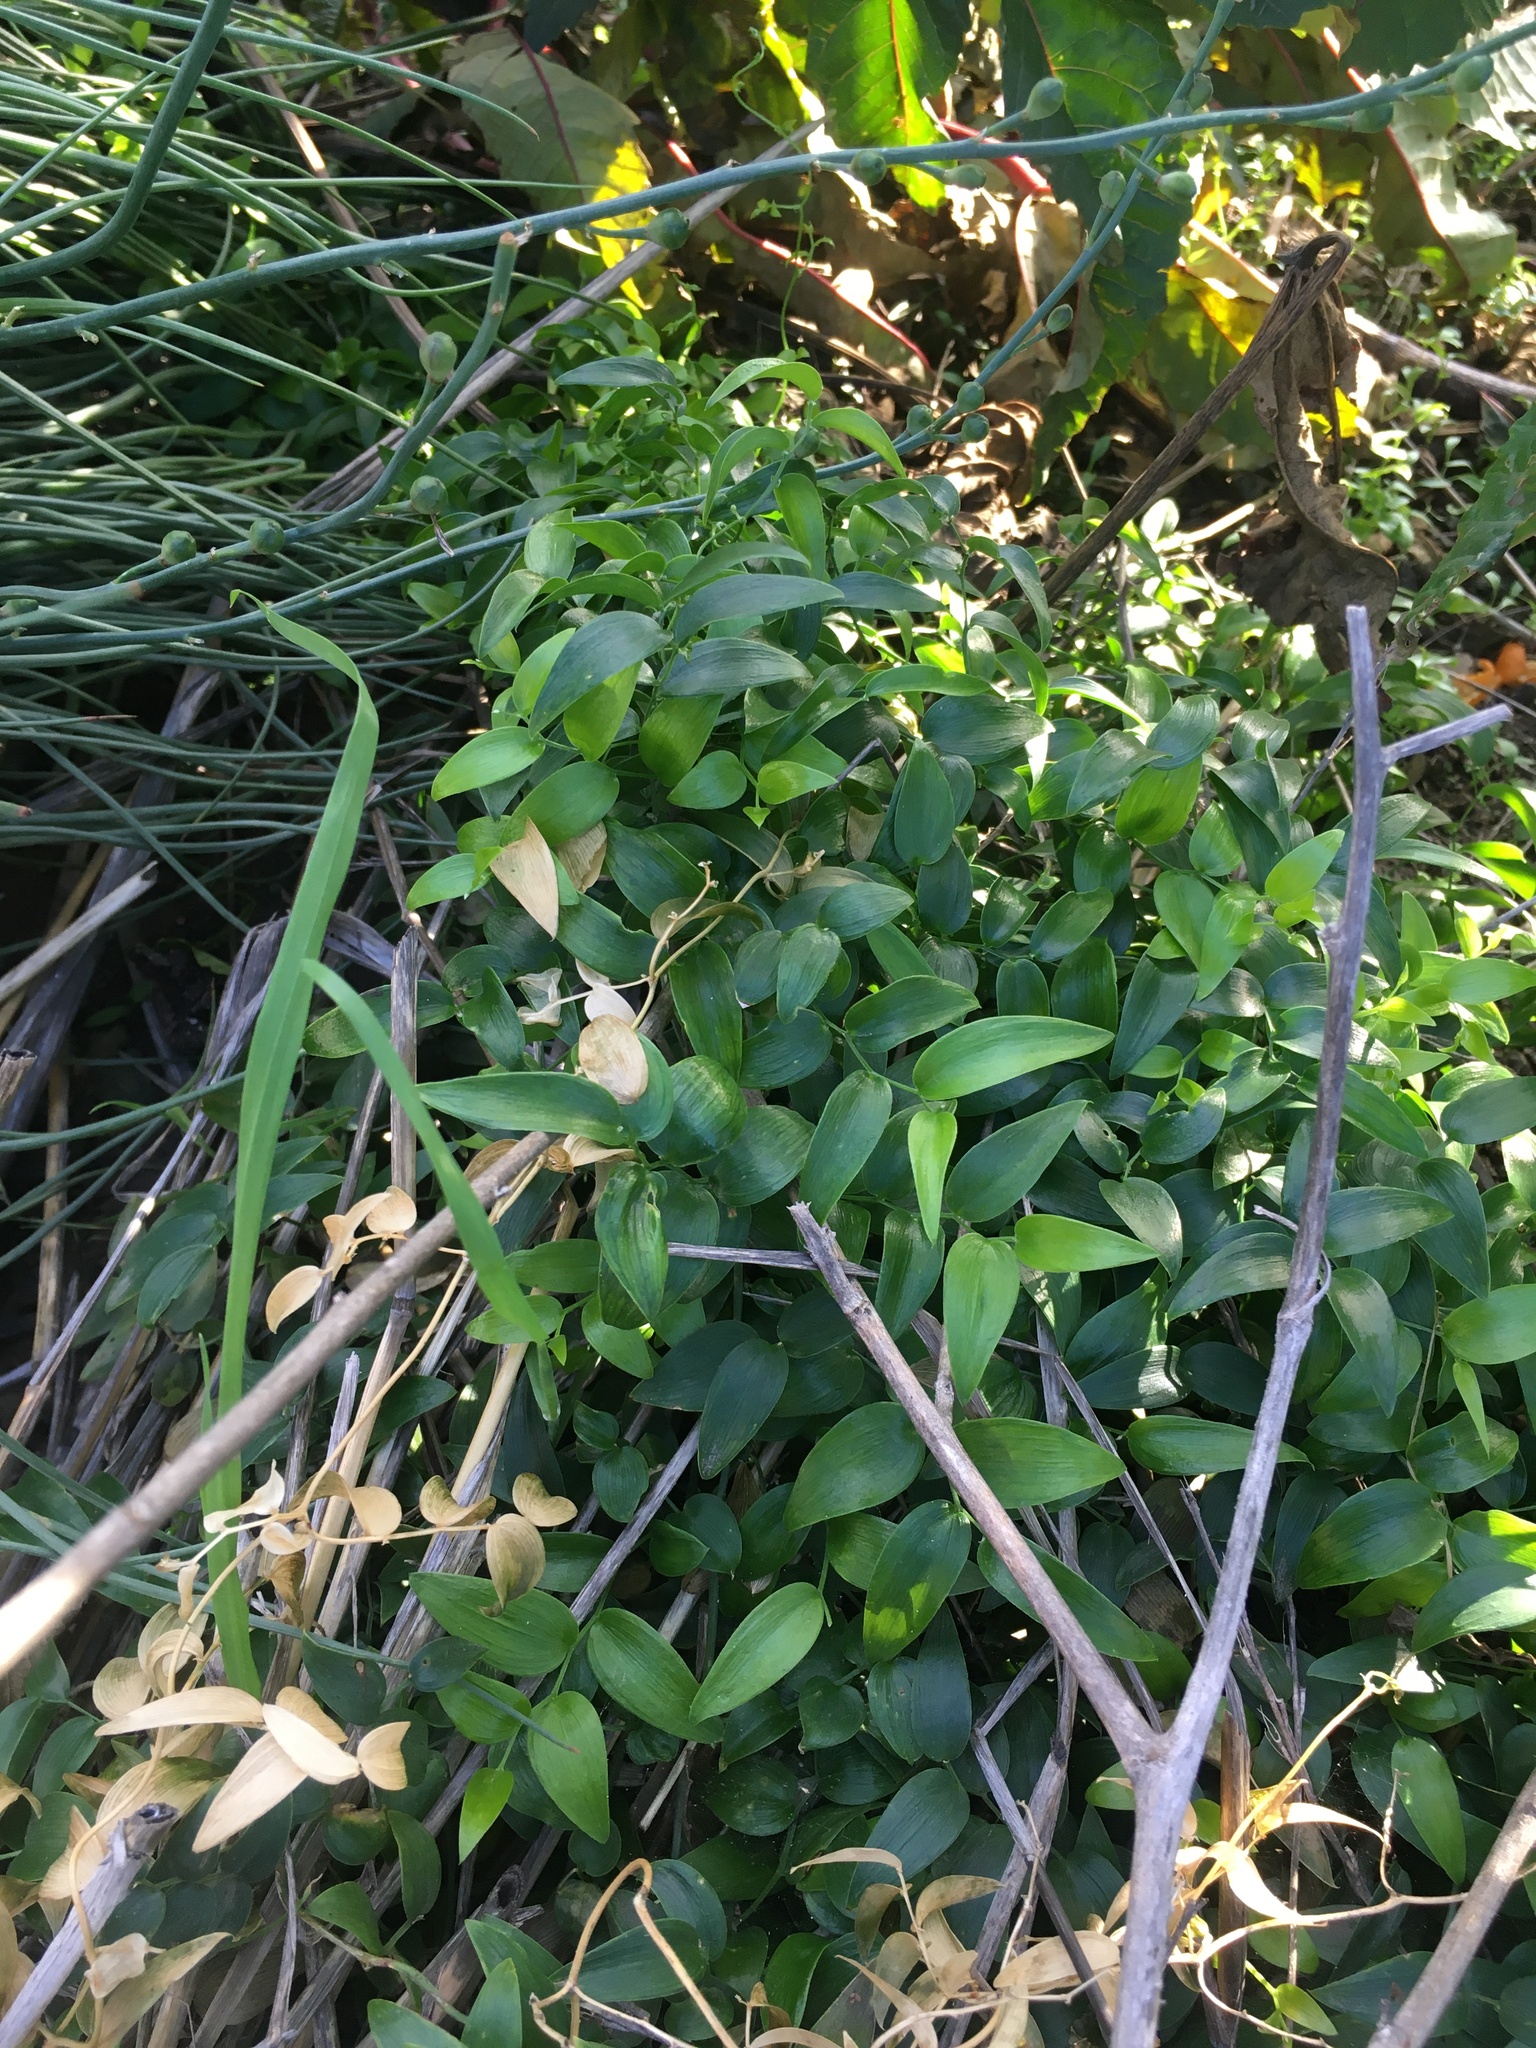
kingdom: Plantae
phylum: Tracheophyta
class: Liliopsida
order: Asparagales
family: Asparagaceae
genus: Asparagus
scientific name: Asparagus asparagoides
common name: African asparagus fern
